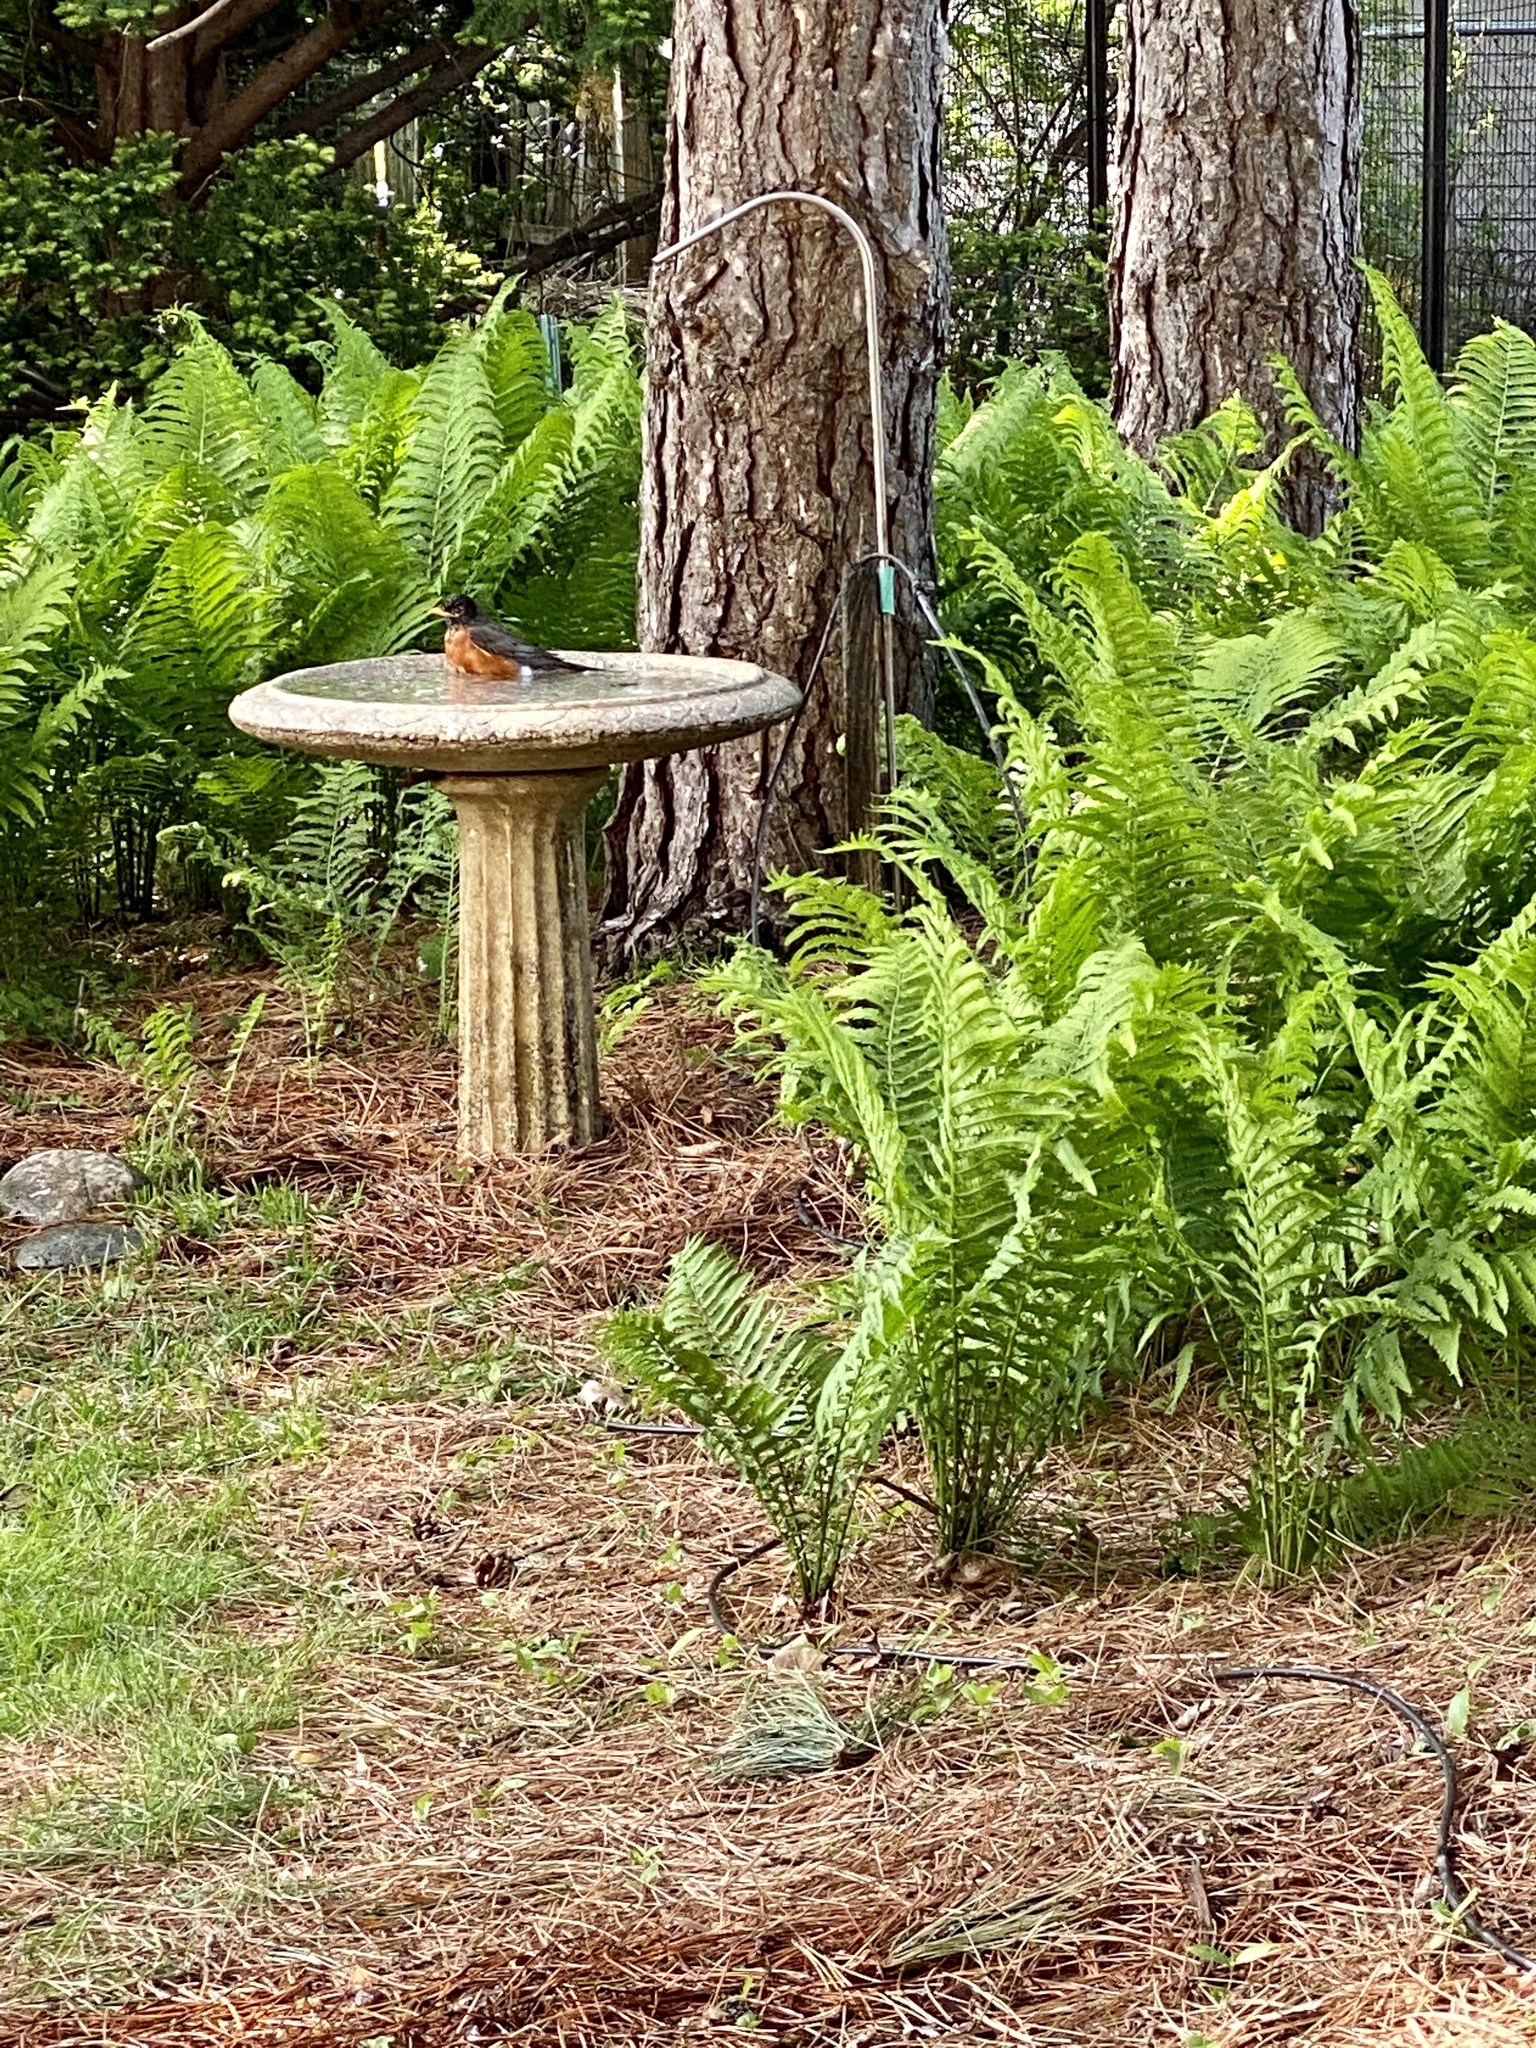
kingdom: Animalia
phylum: Chordata
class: Aves
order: Passeriformes
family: Turdidae
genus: Turdus
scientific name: Turdus migratorius
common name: American robin
